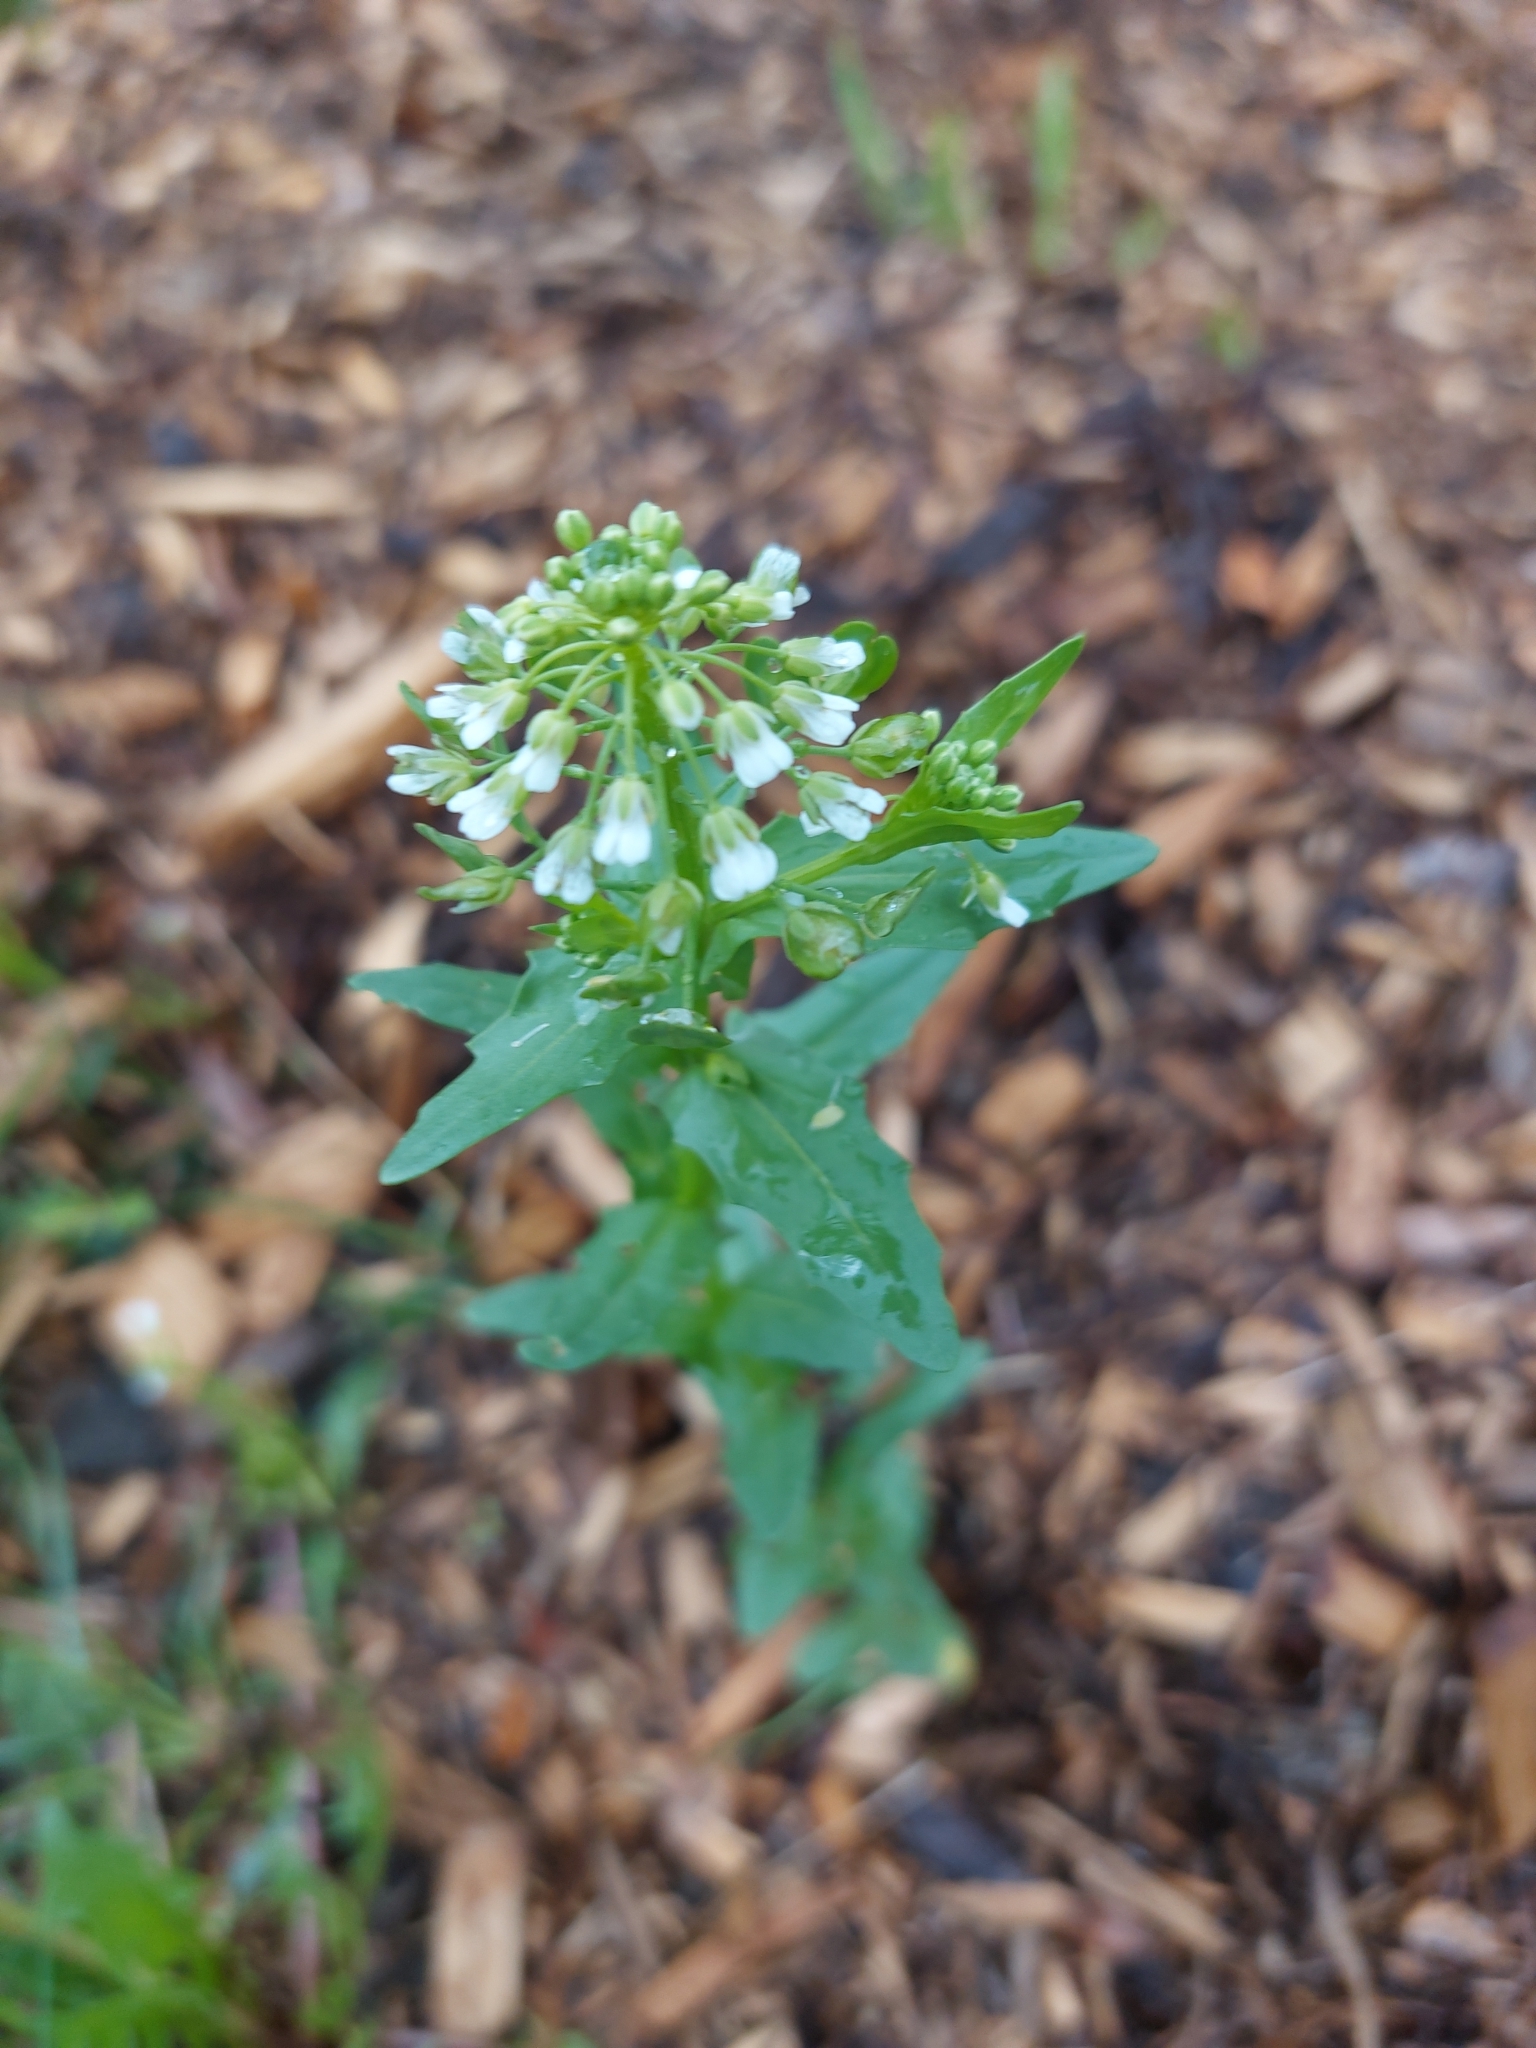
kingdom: Plantae
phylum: Tracheophyta
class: Magnoliopsida
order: Brassicales
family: Brassicaceae
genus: Thlaspi
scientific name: Thlaspi arvense
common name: Field pennycress
